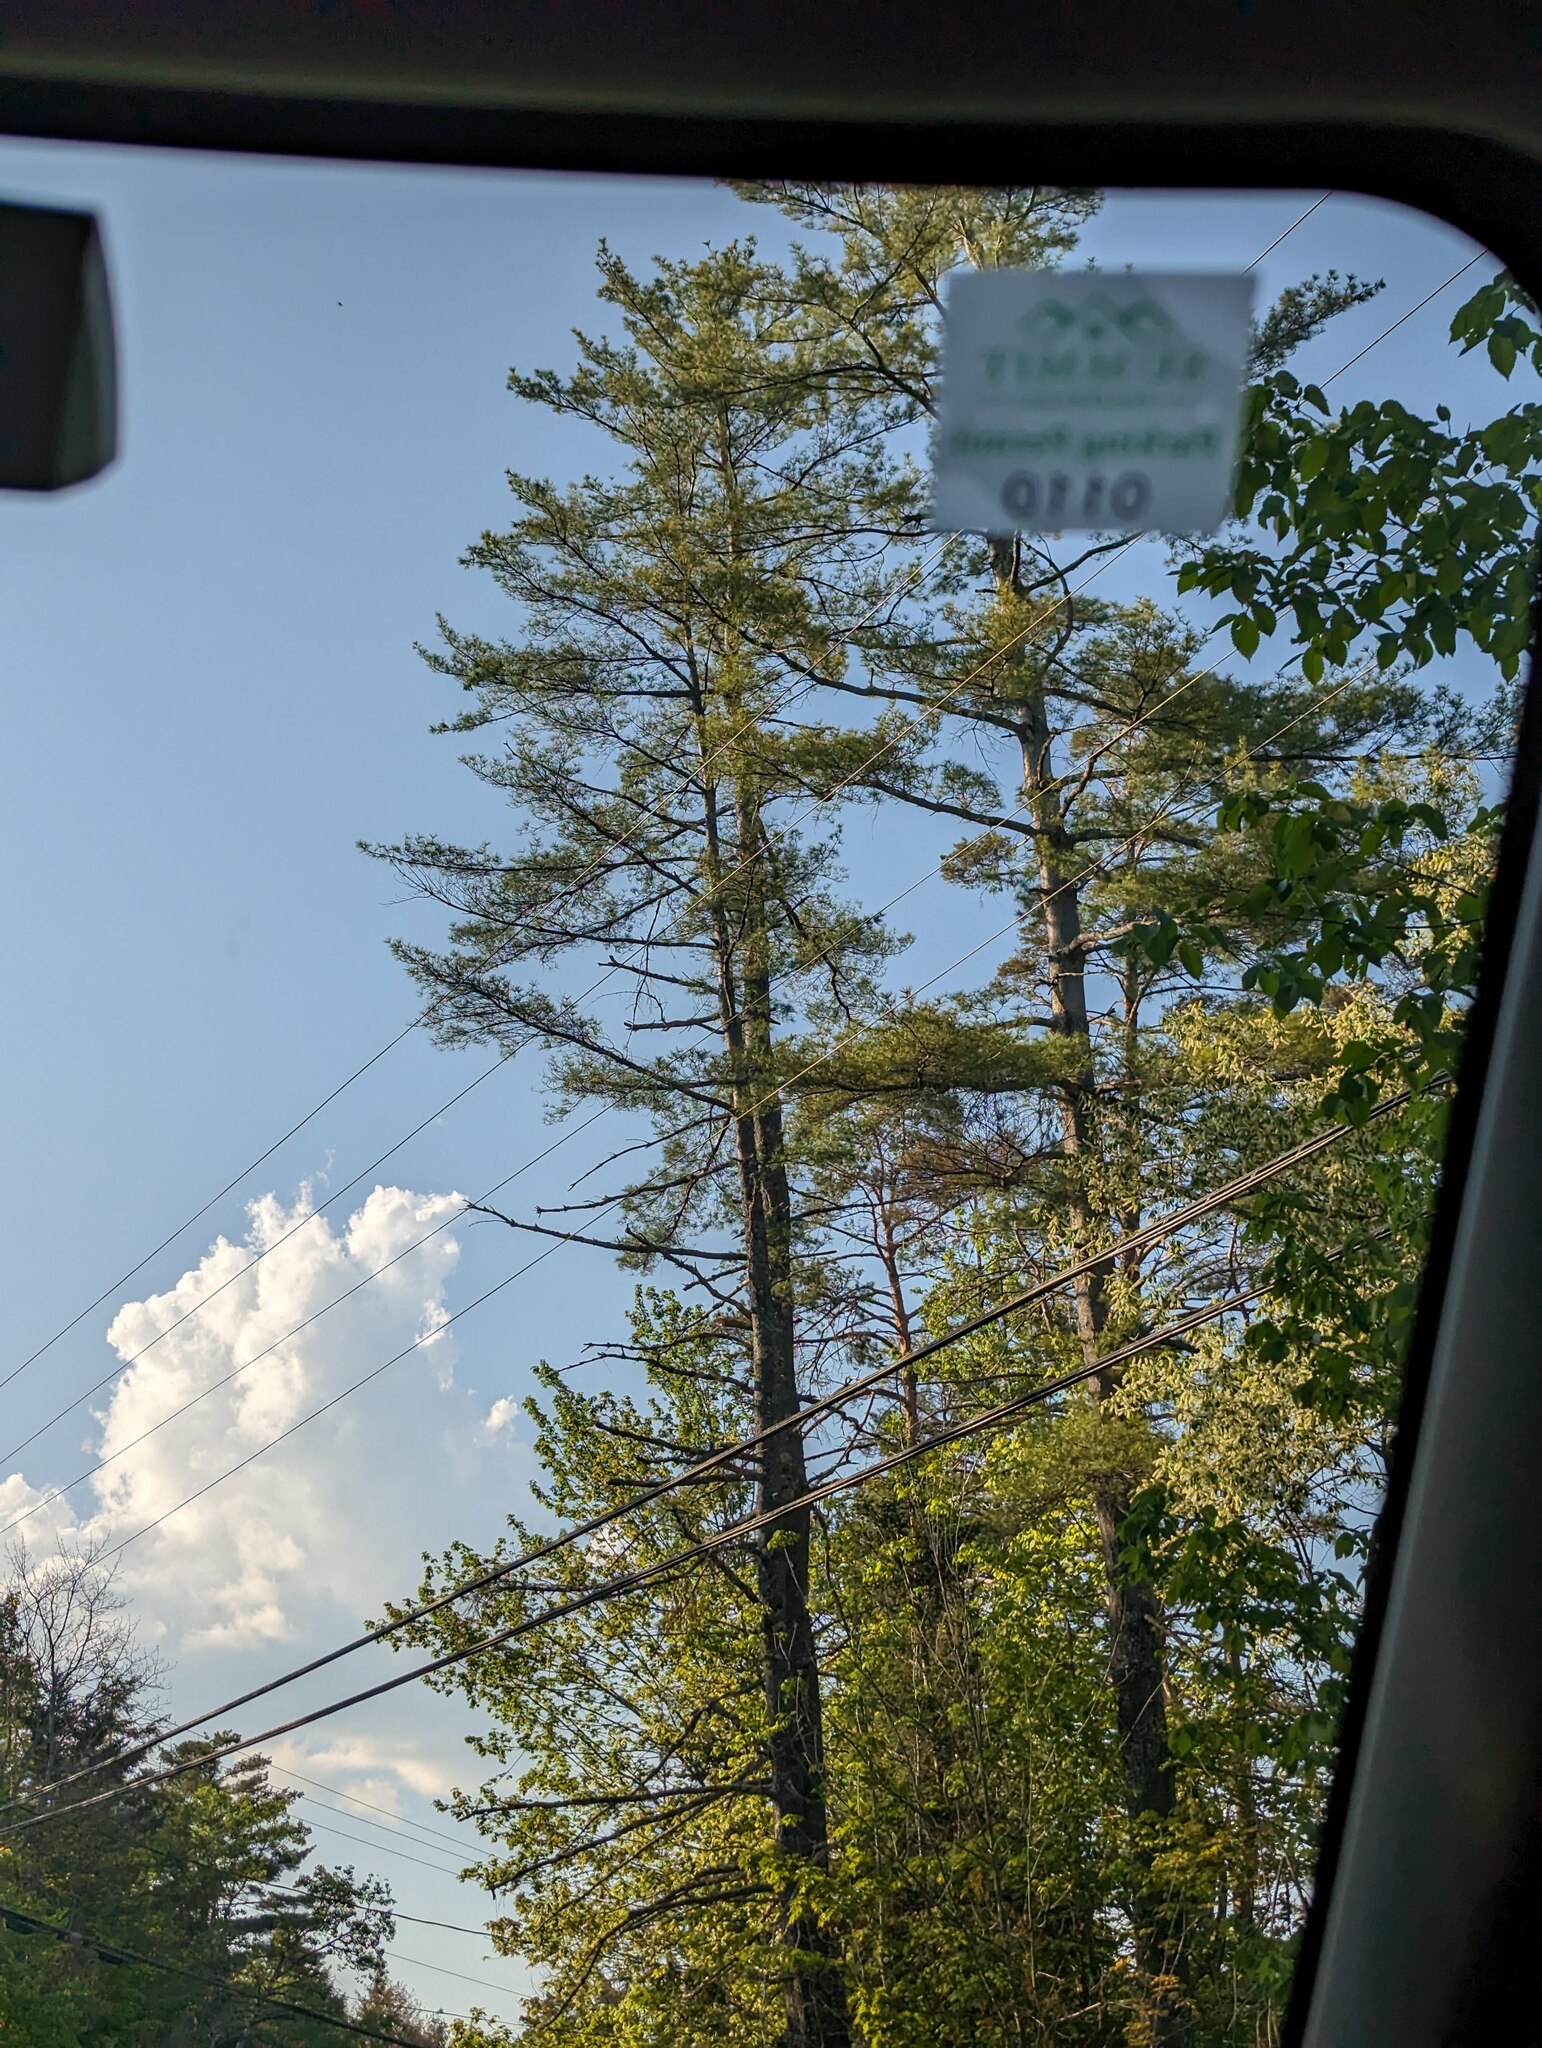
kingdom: Plantae
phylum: Tracheophyta
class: Pinopsida
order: Pinales
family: Pinaceae
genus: Pinus
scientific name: Pinus strobus
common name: Weymouth pine
